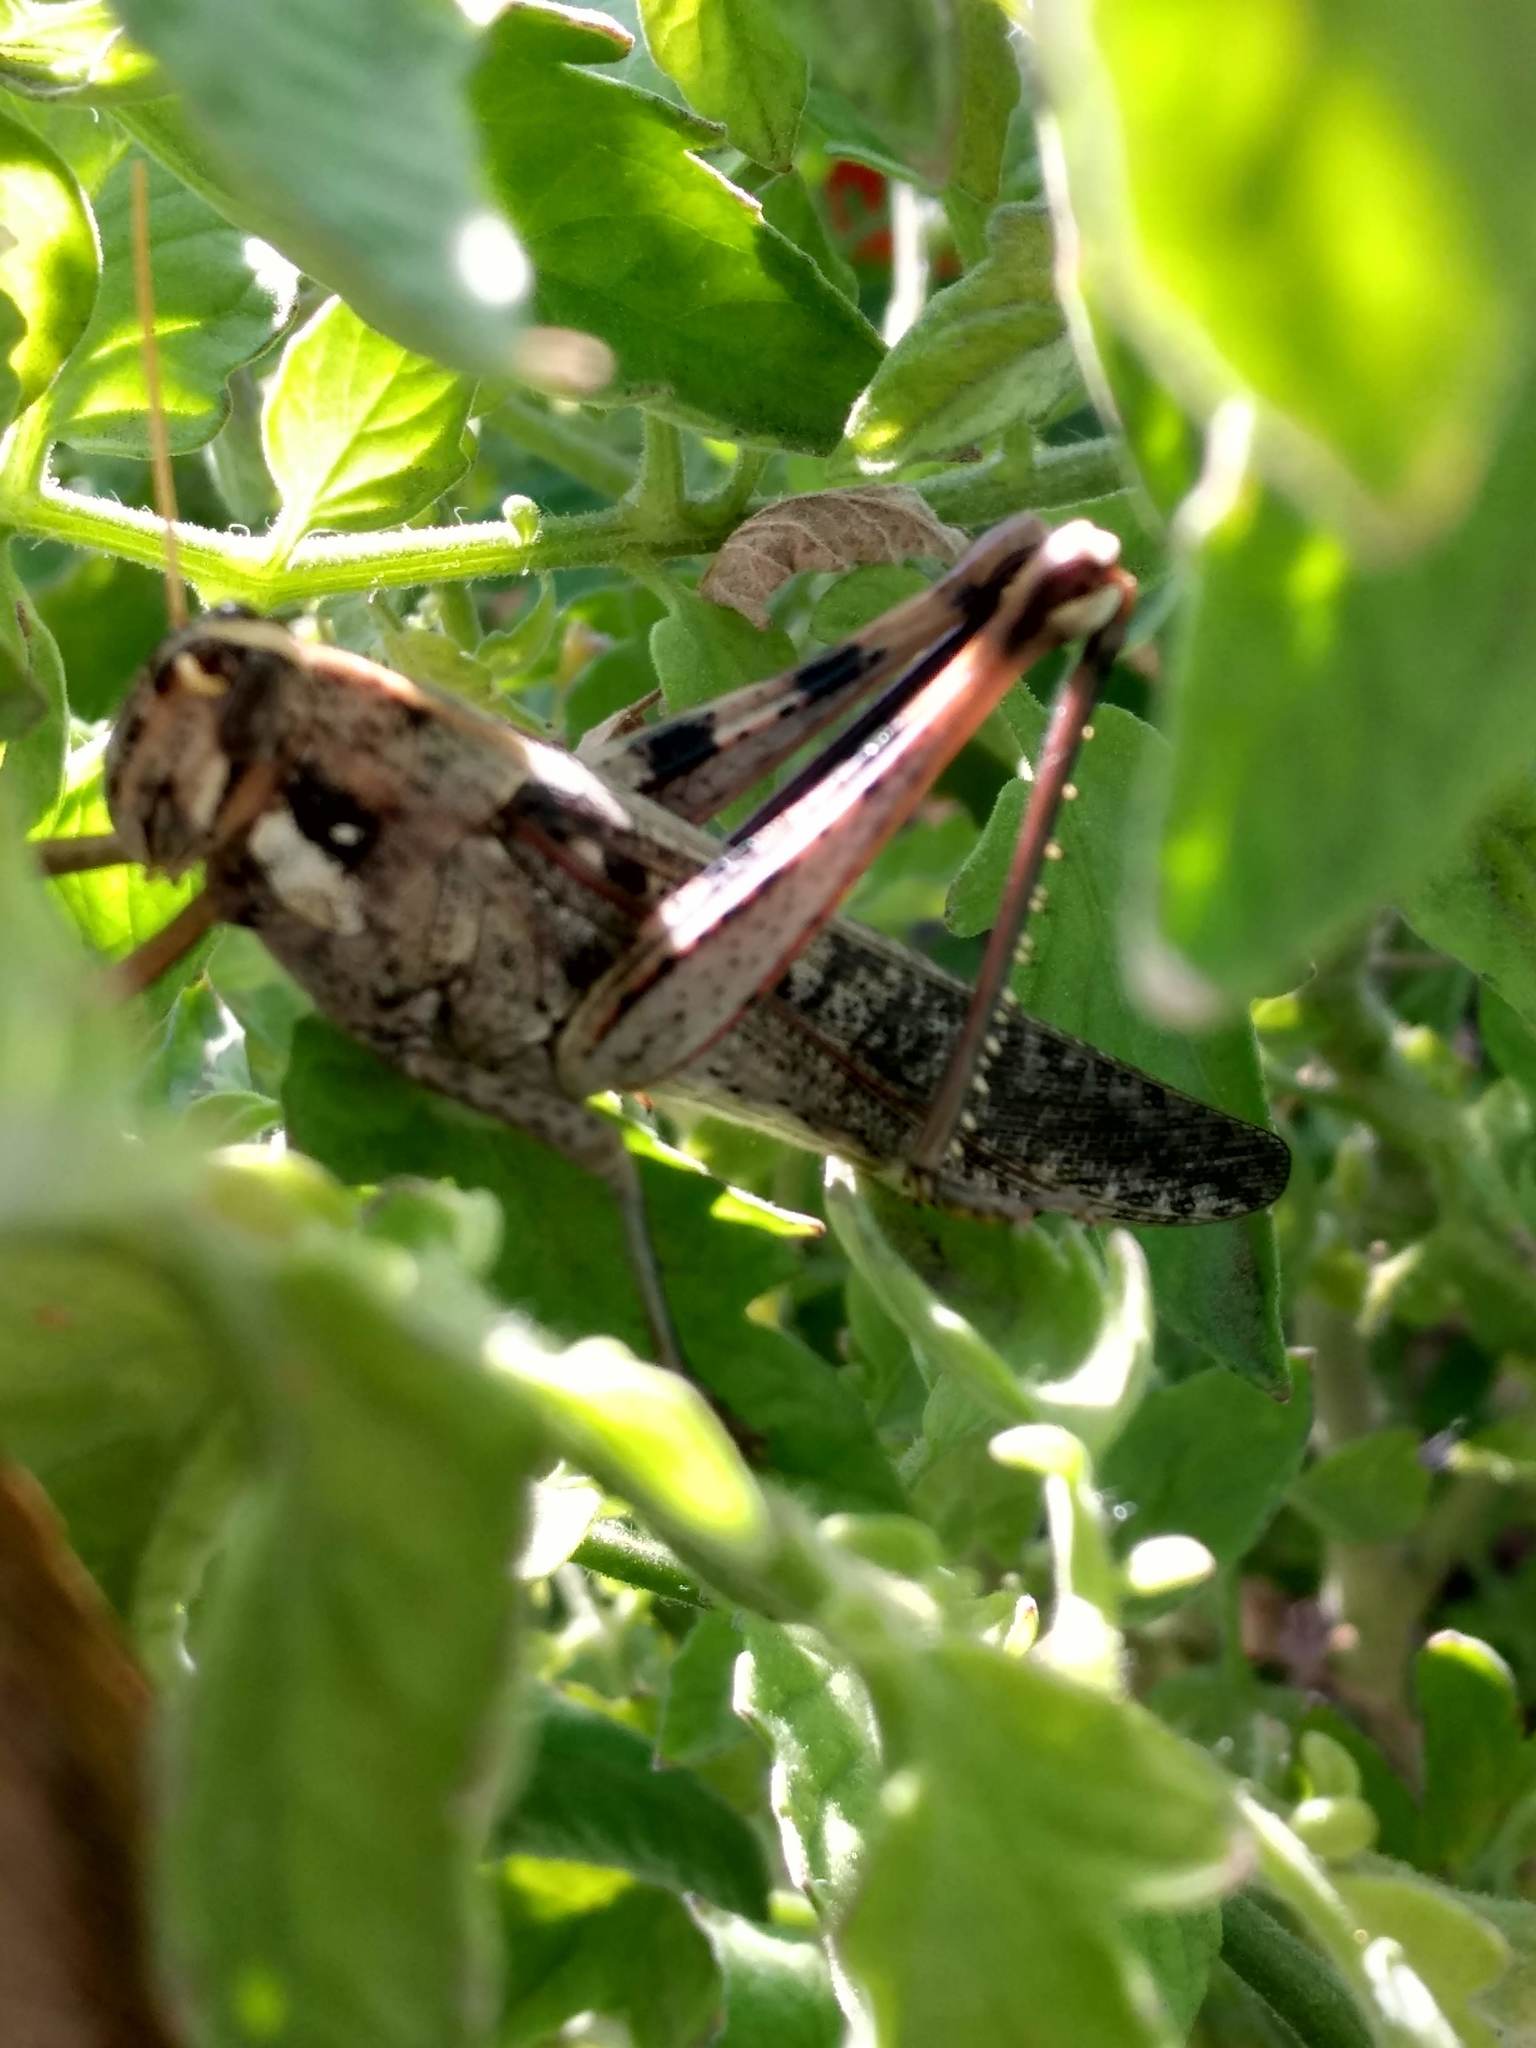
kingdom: Animalia
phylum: Arthropoda
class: Insecta
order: Orthoptera
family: Acrididae
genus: Schistocerca
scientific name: Schistocerca nitens
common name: Vagrant grasshopper
